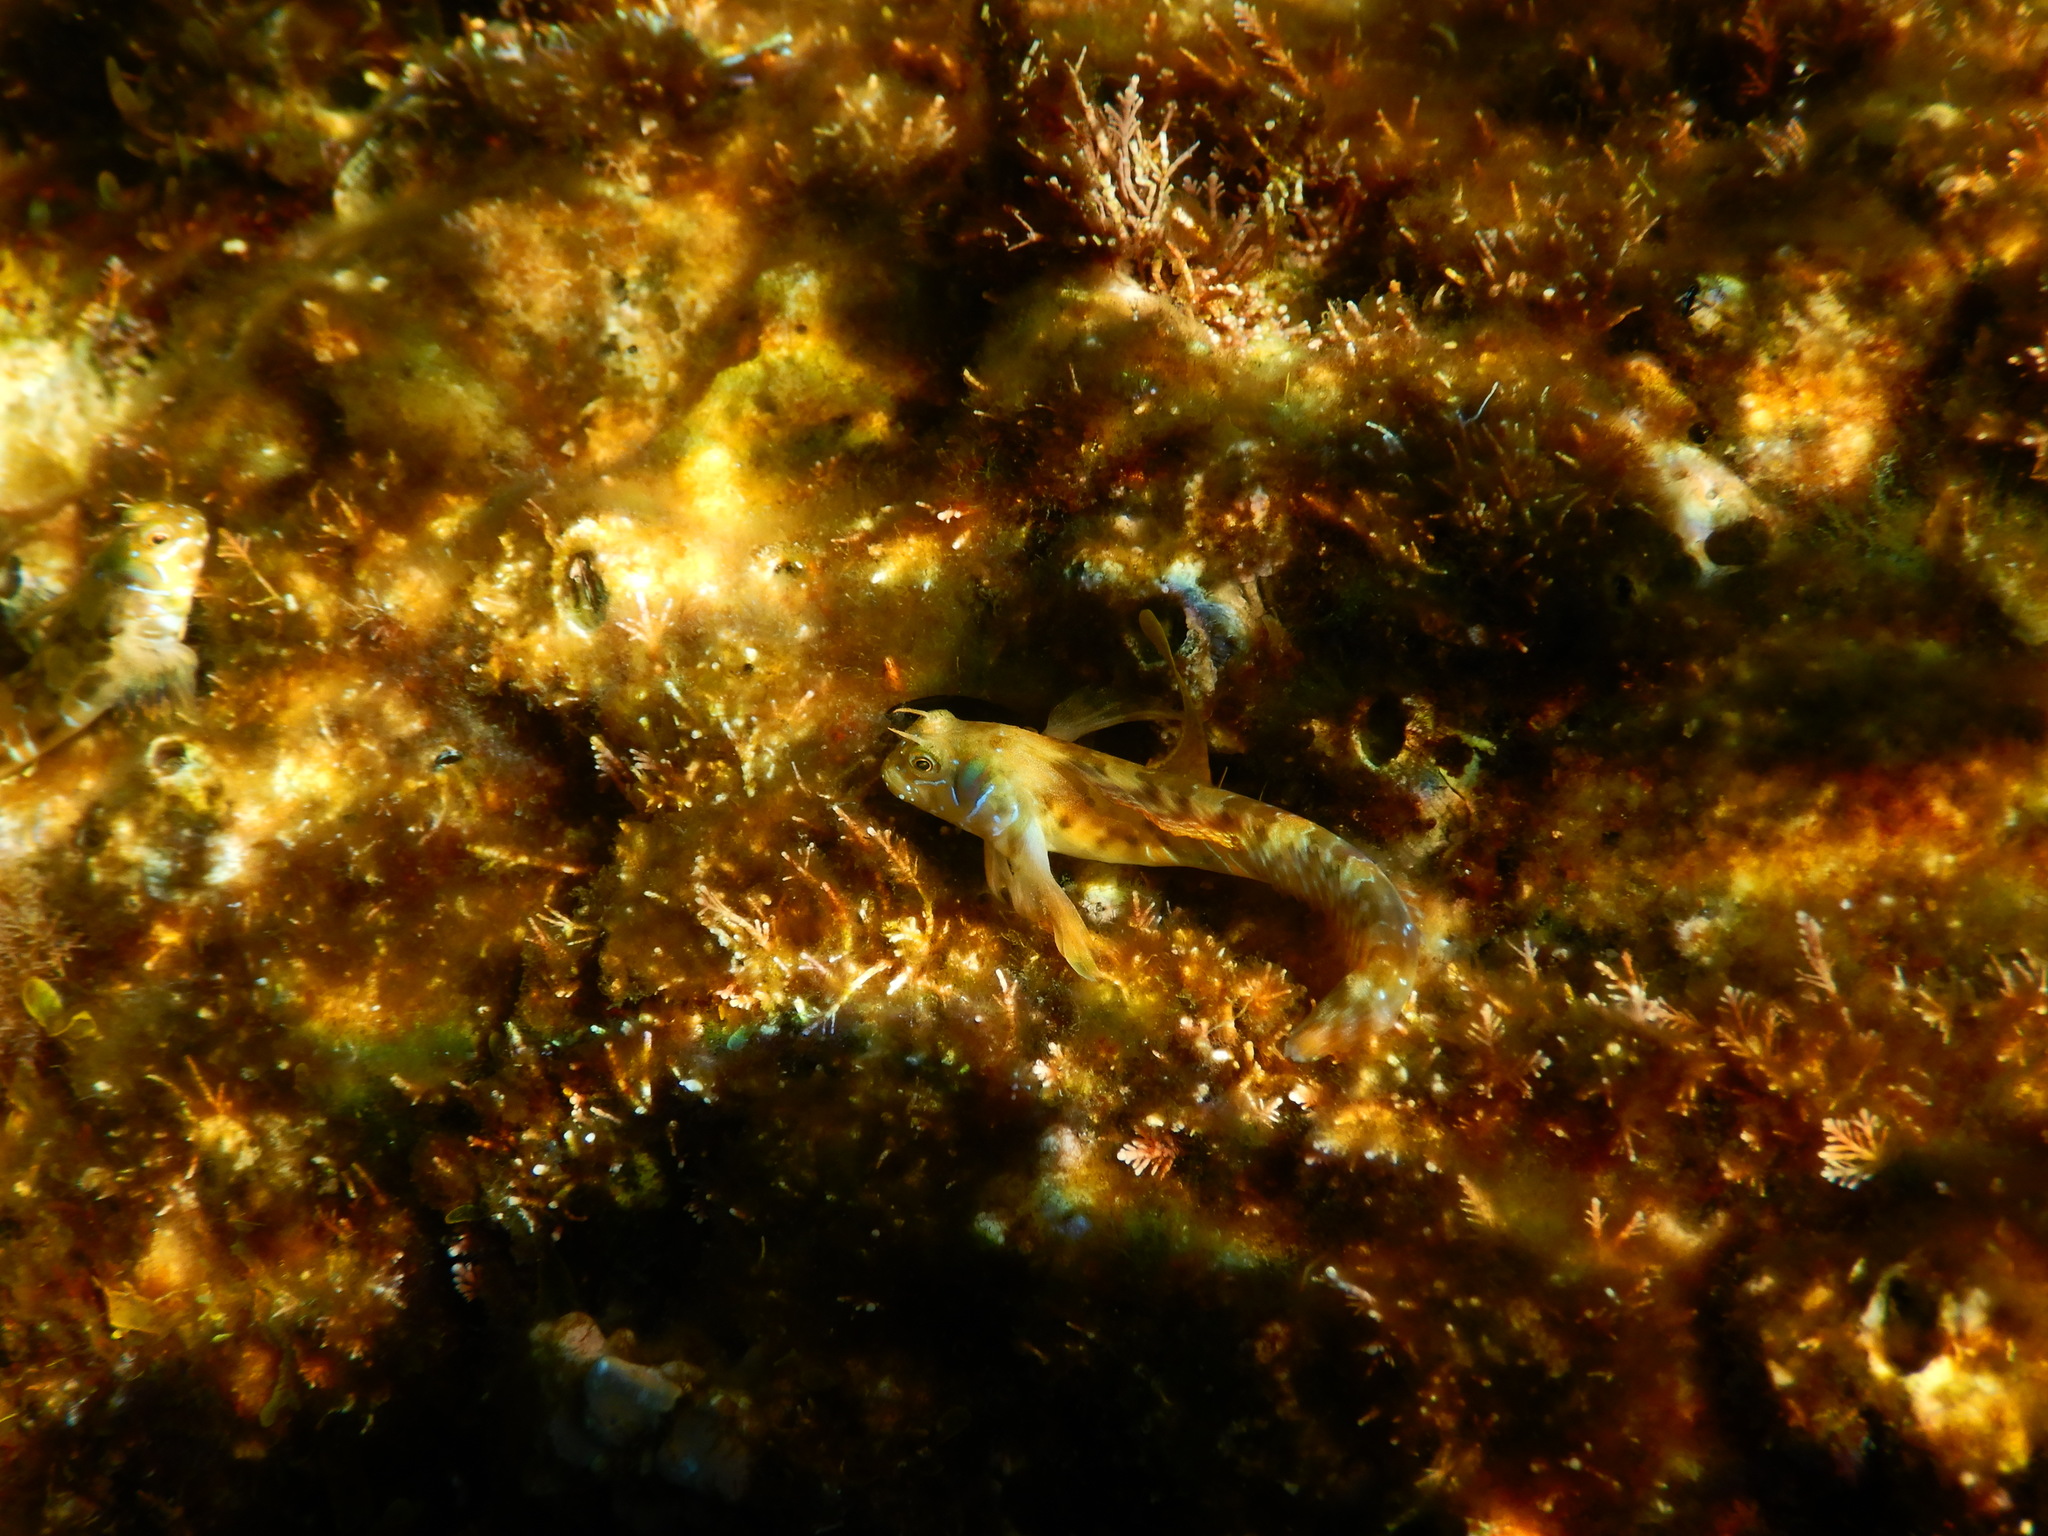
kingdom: Animalia
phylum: Chordata
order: Perciformes
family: Blenniidae
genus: Aidablennius
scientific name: Aidablennius sphynx
